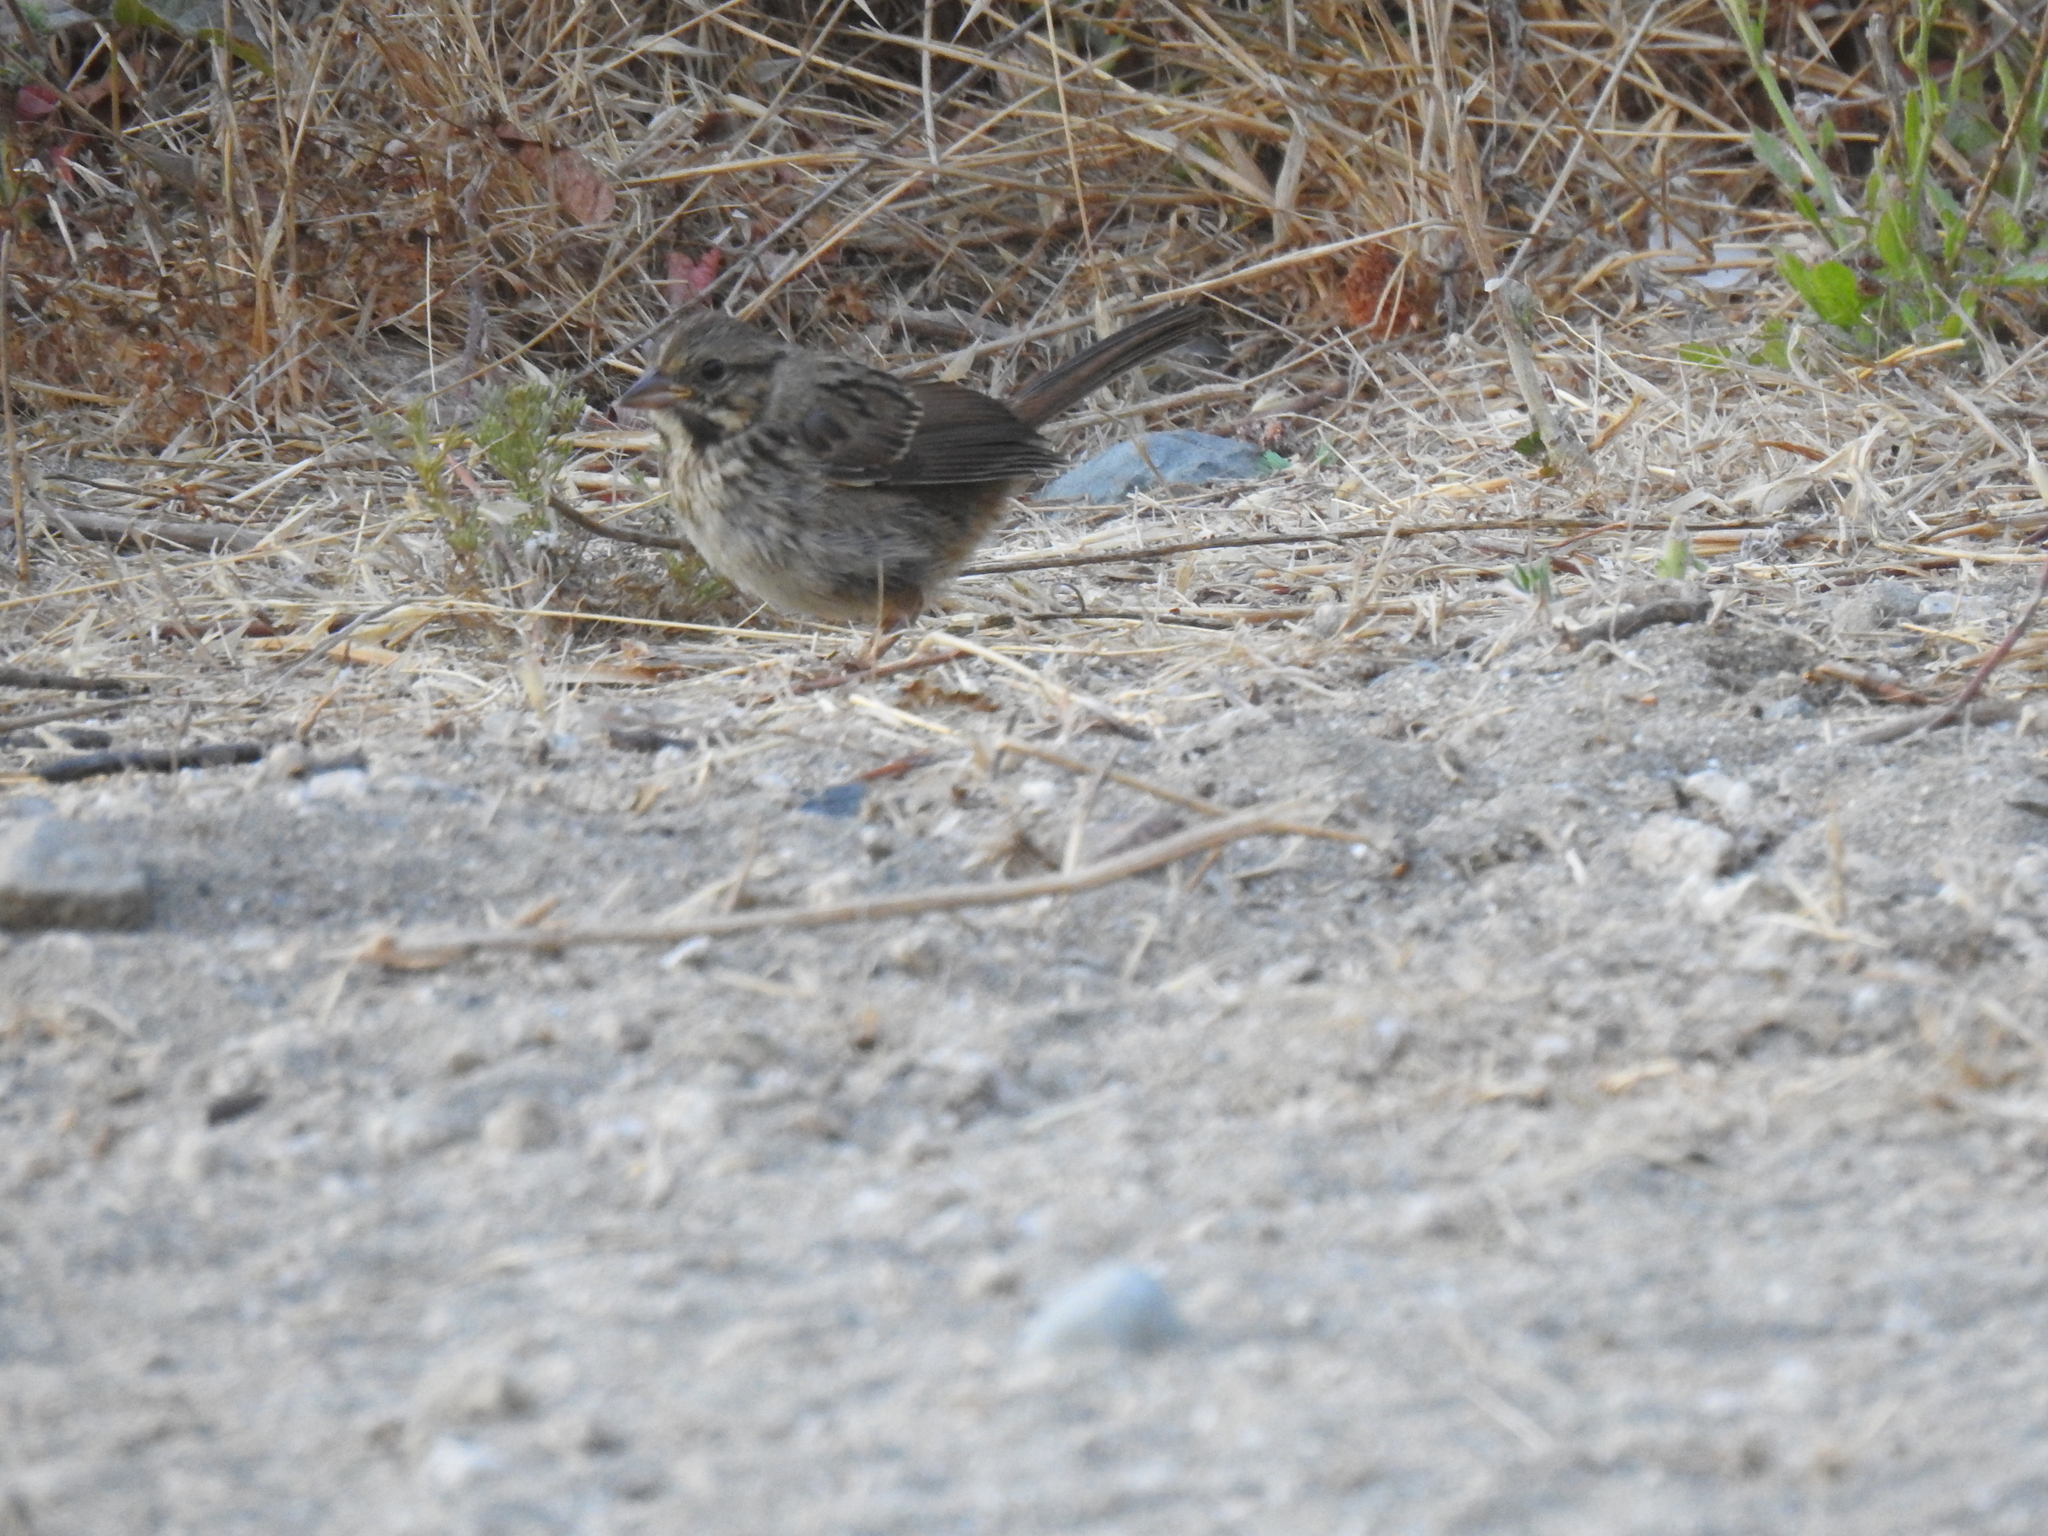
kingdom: Animalia
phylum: Chordata
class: Aves
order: Passeriformes
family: Passerellidae
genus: Melospiza
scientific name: Melospiza melodia
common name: Song sparrow
